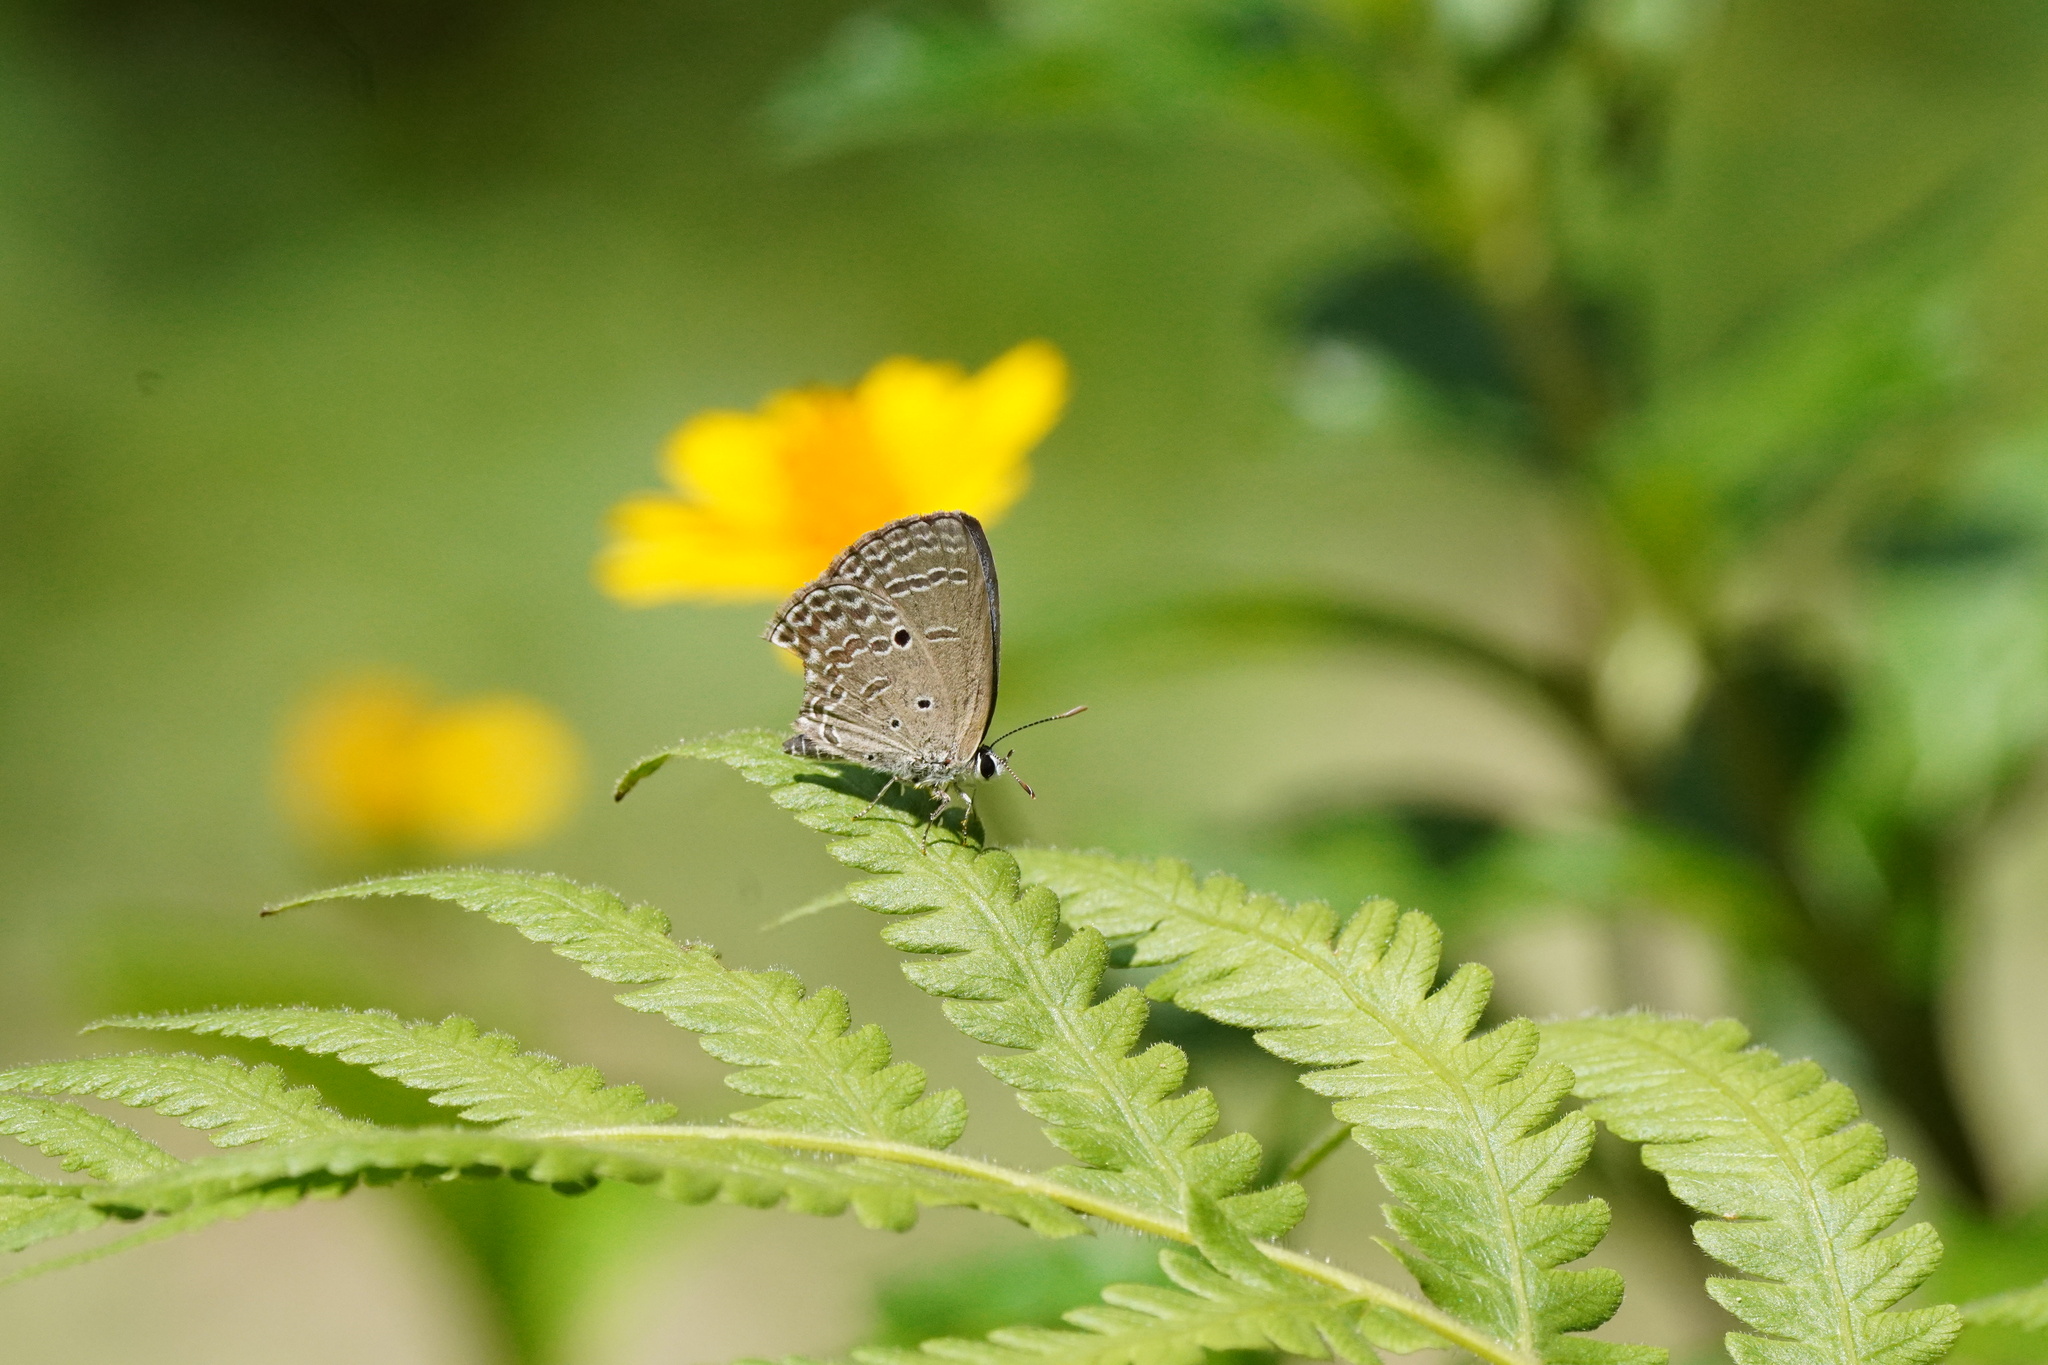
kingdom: Animalia
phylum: Arthropoda
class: Insecta
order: Lepidoptera
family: Lycaenidae
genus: Luthrodes
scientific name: Luthrodes pandava
